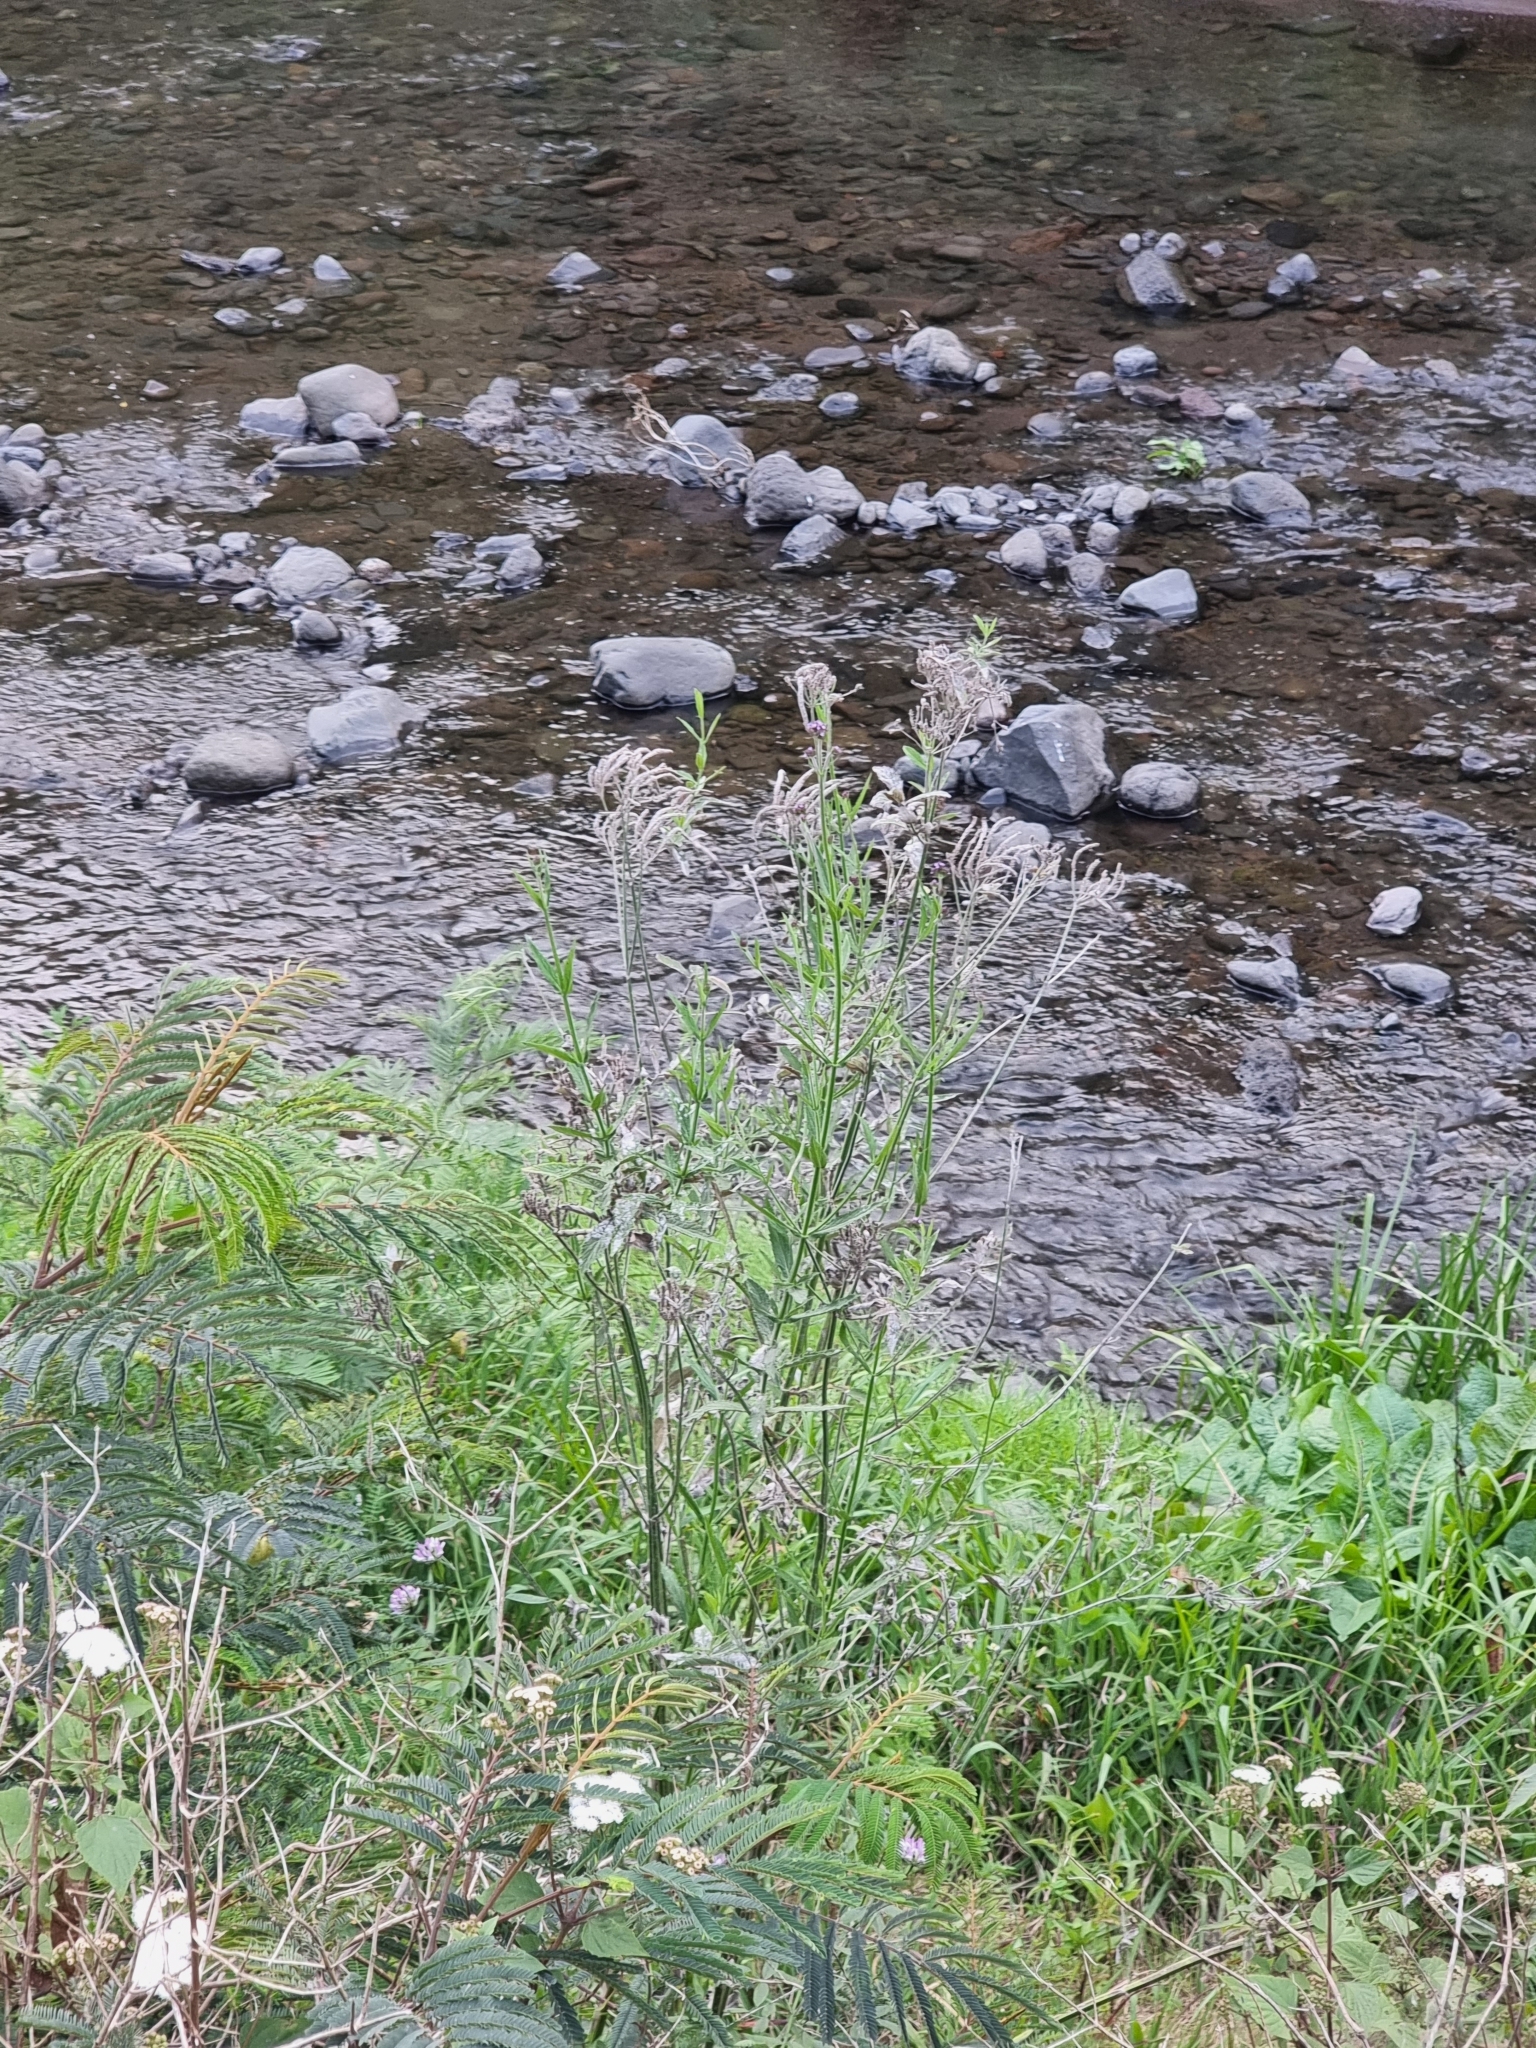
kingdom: Plantae
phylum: Tracheophyta
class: Magnoliopsida
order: Lamiales
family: Verbenaceae
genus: Verbena
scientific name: Verbena bonariensis
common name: Purpletop vervain
